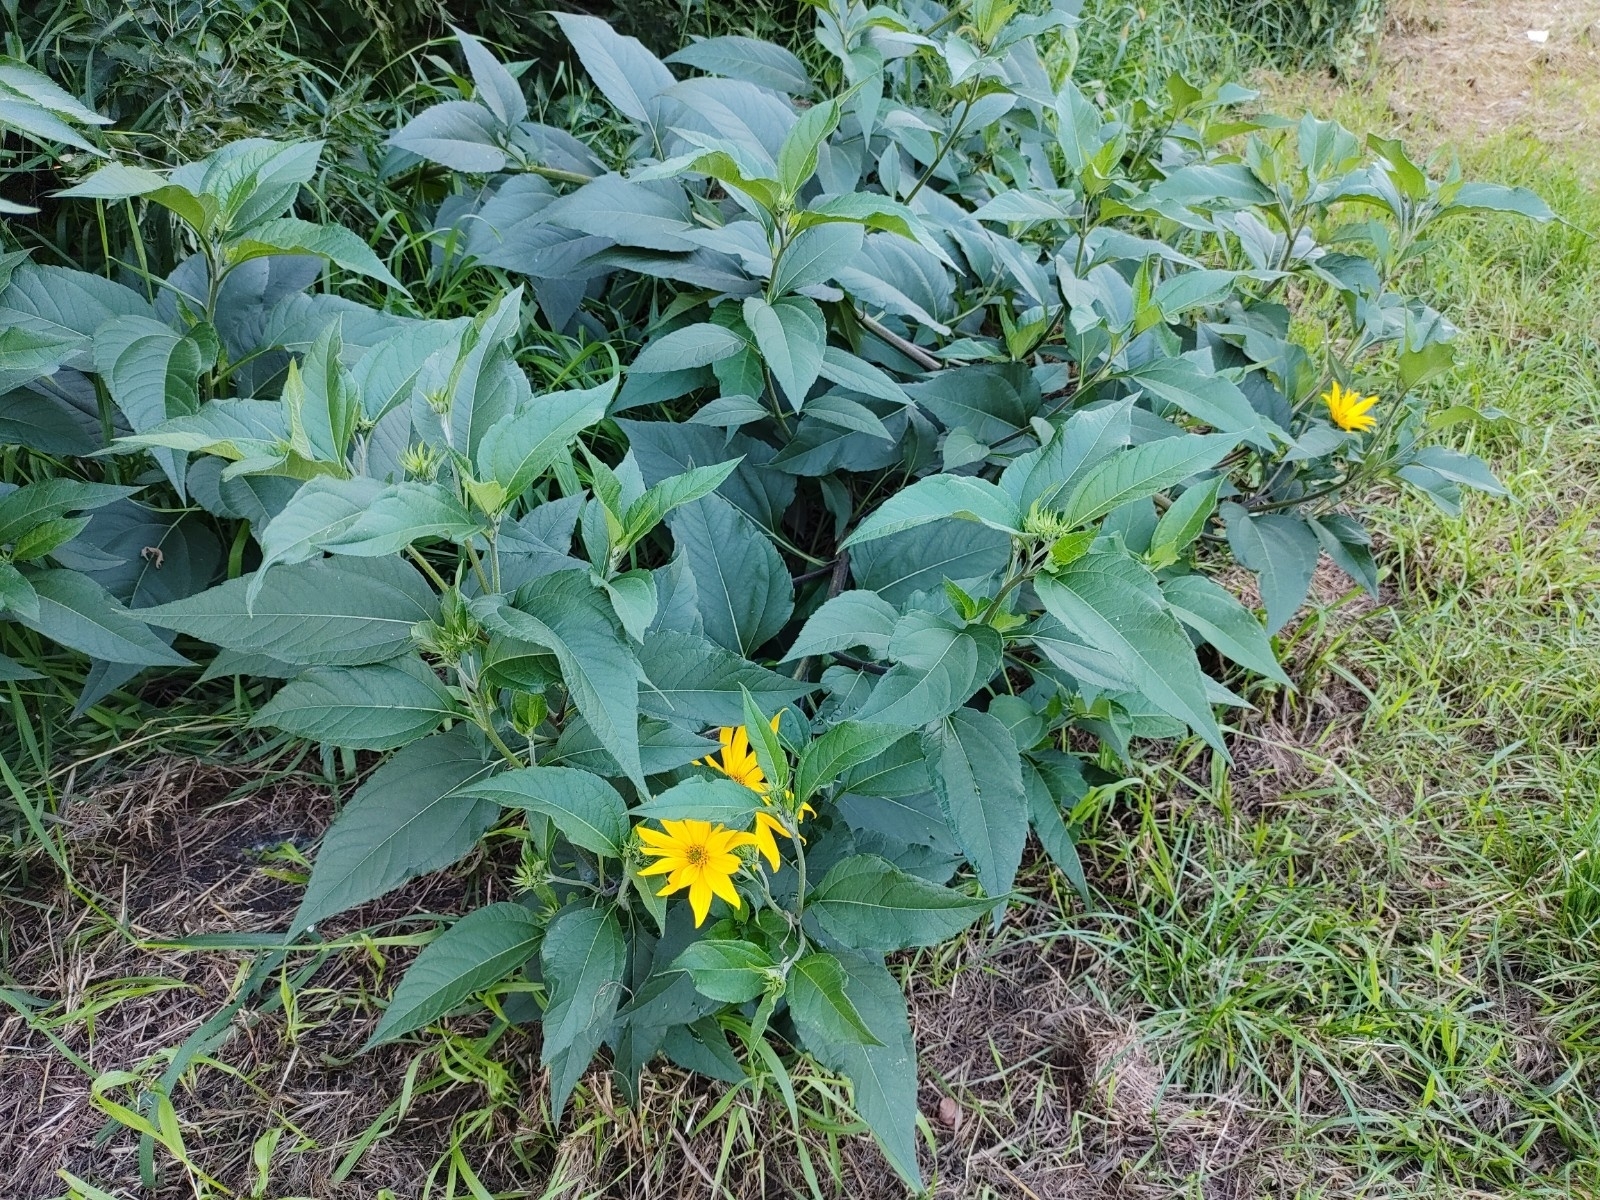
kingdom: Plantae
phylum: Tracheophyta
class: Magnoliopsida
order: Asterales
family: Asteraceae
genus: Helianthus
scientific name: Helianthus tuberosus
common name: Jerusalem artichoke
